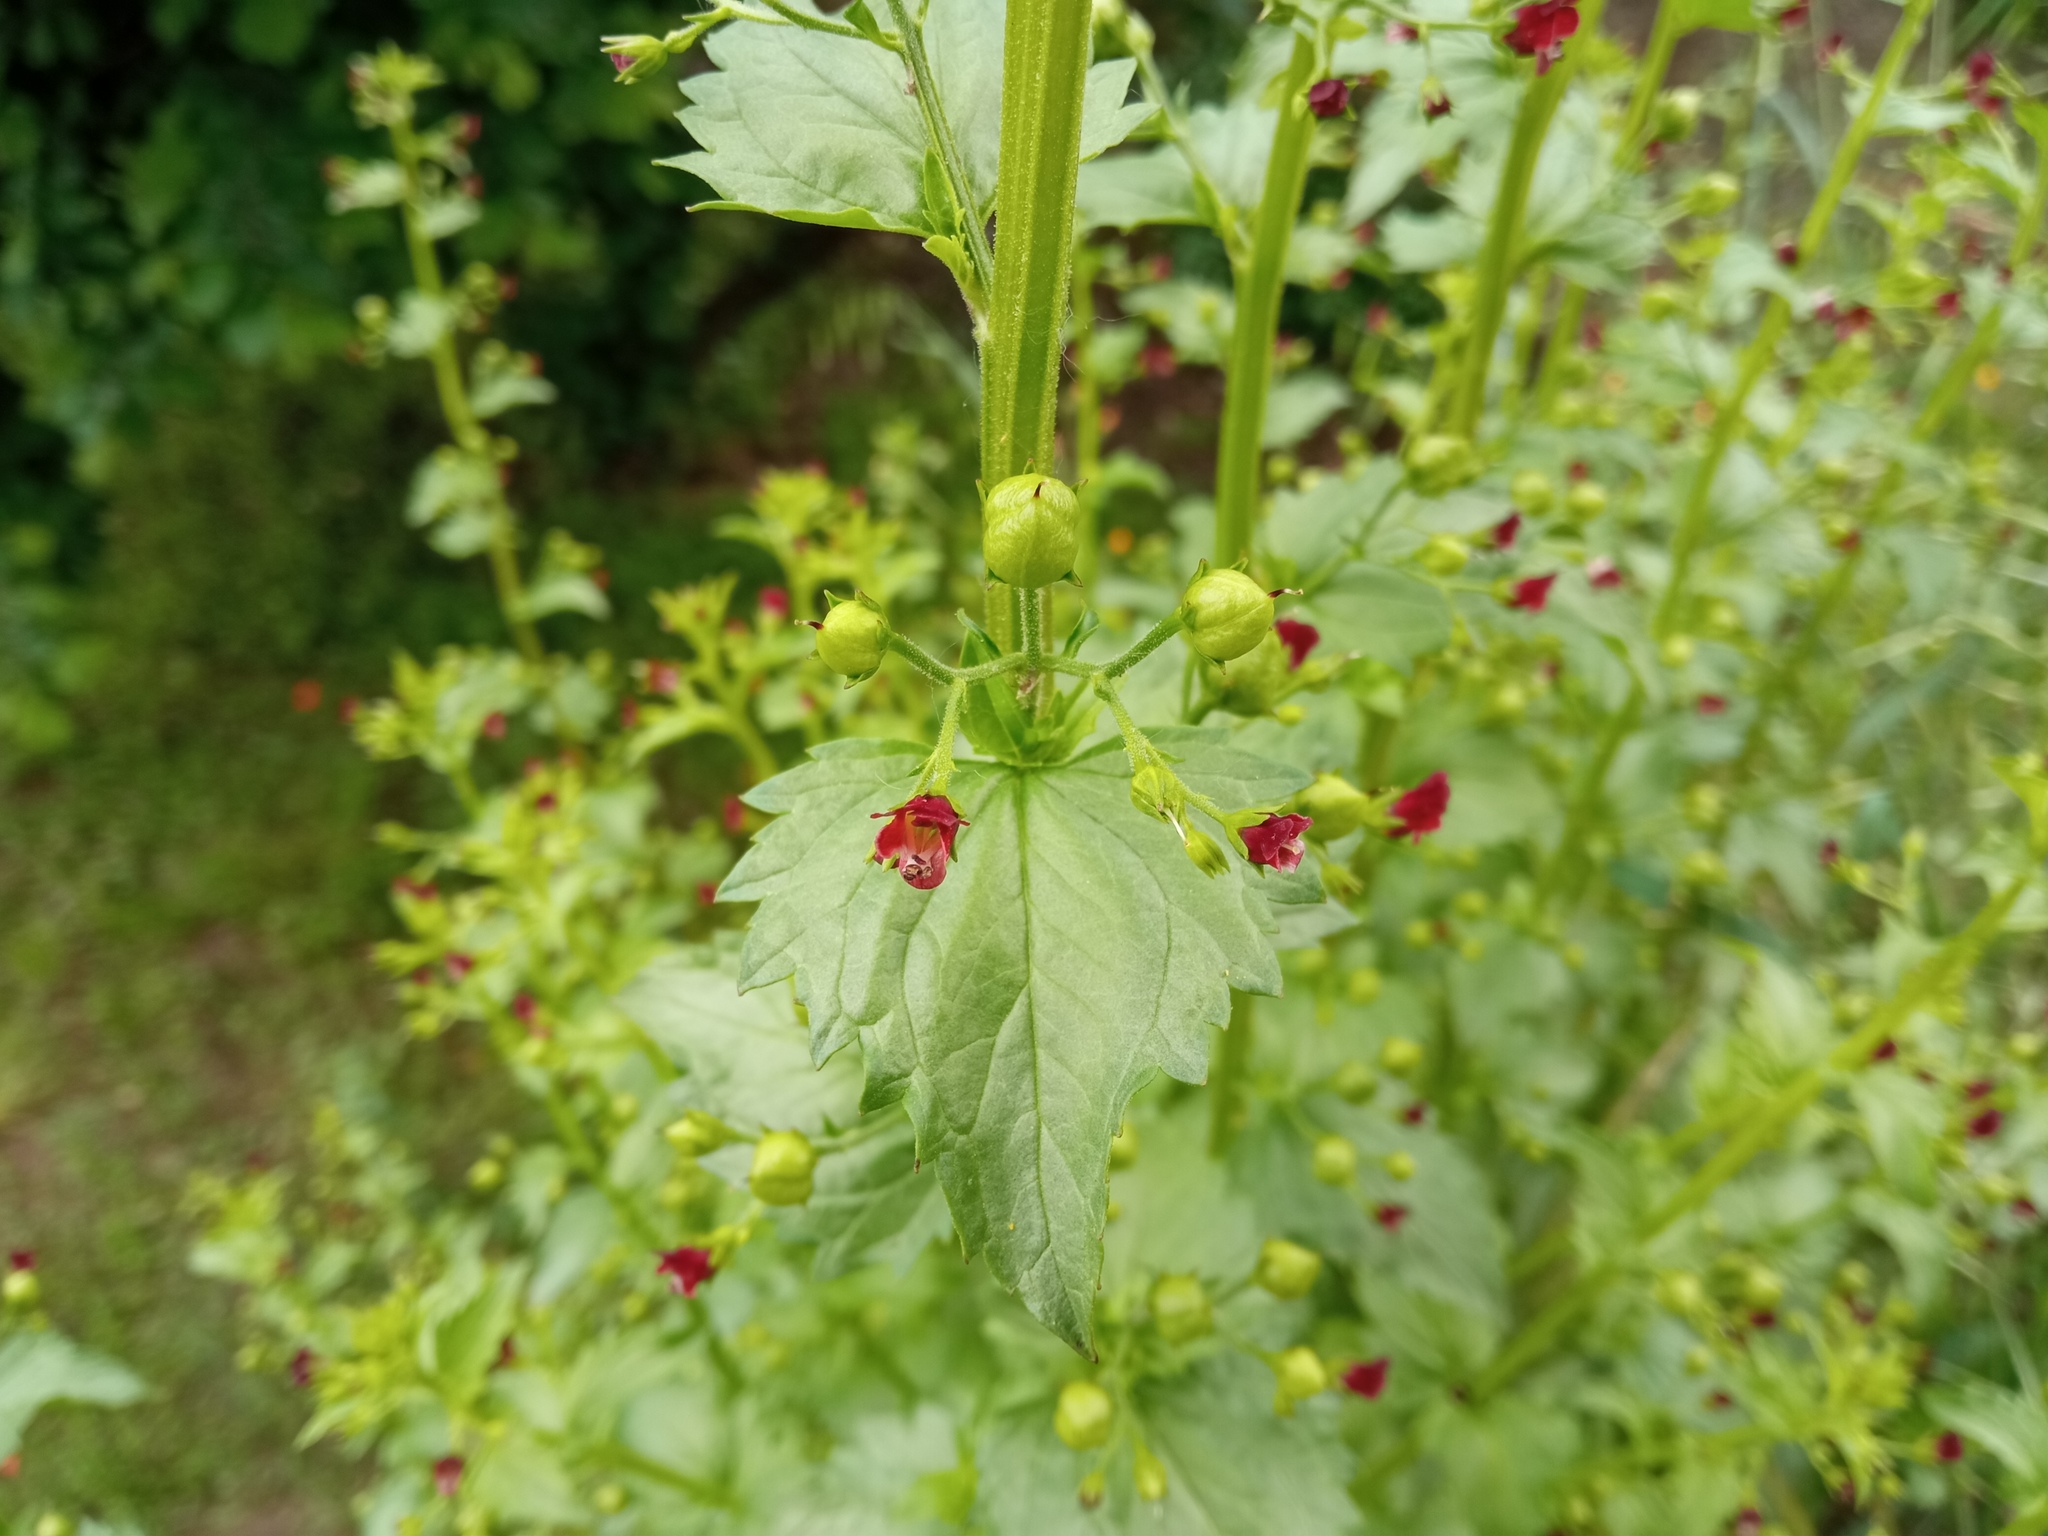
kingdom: Plantae
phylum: Tracheophyta
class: Magnoliopsida
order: Lamiales
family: Scrophulariaceae
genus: Scrophularia
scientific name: Scrophularia peregrina
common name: Mediterranean figwort
